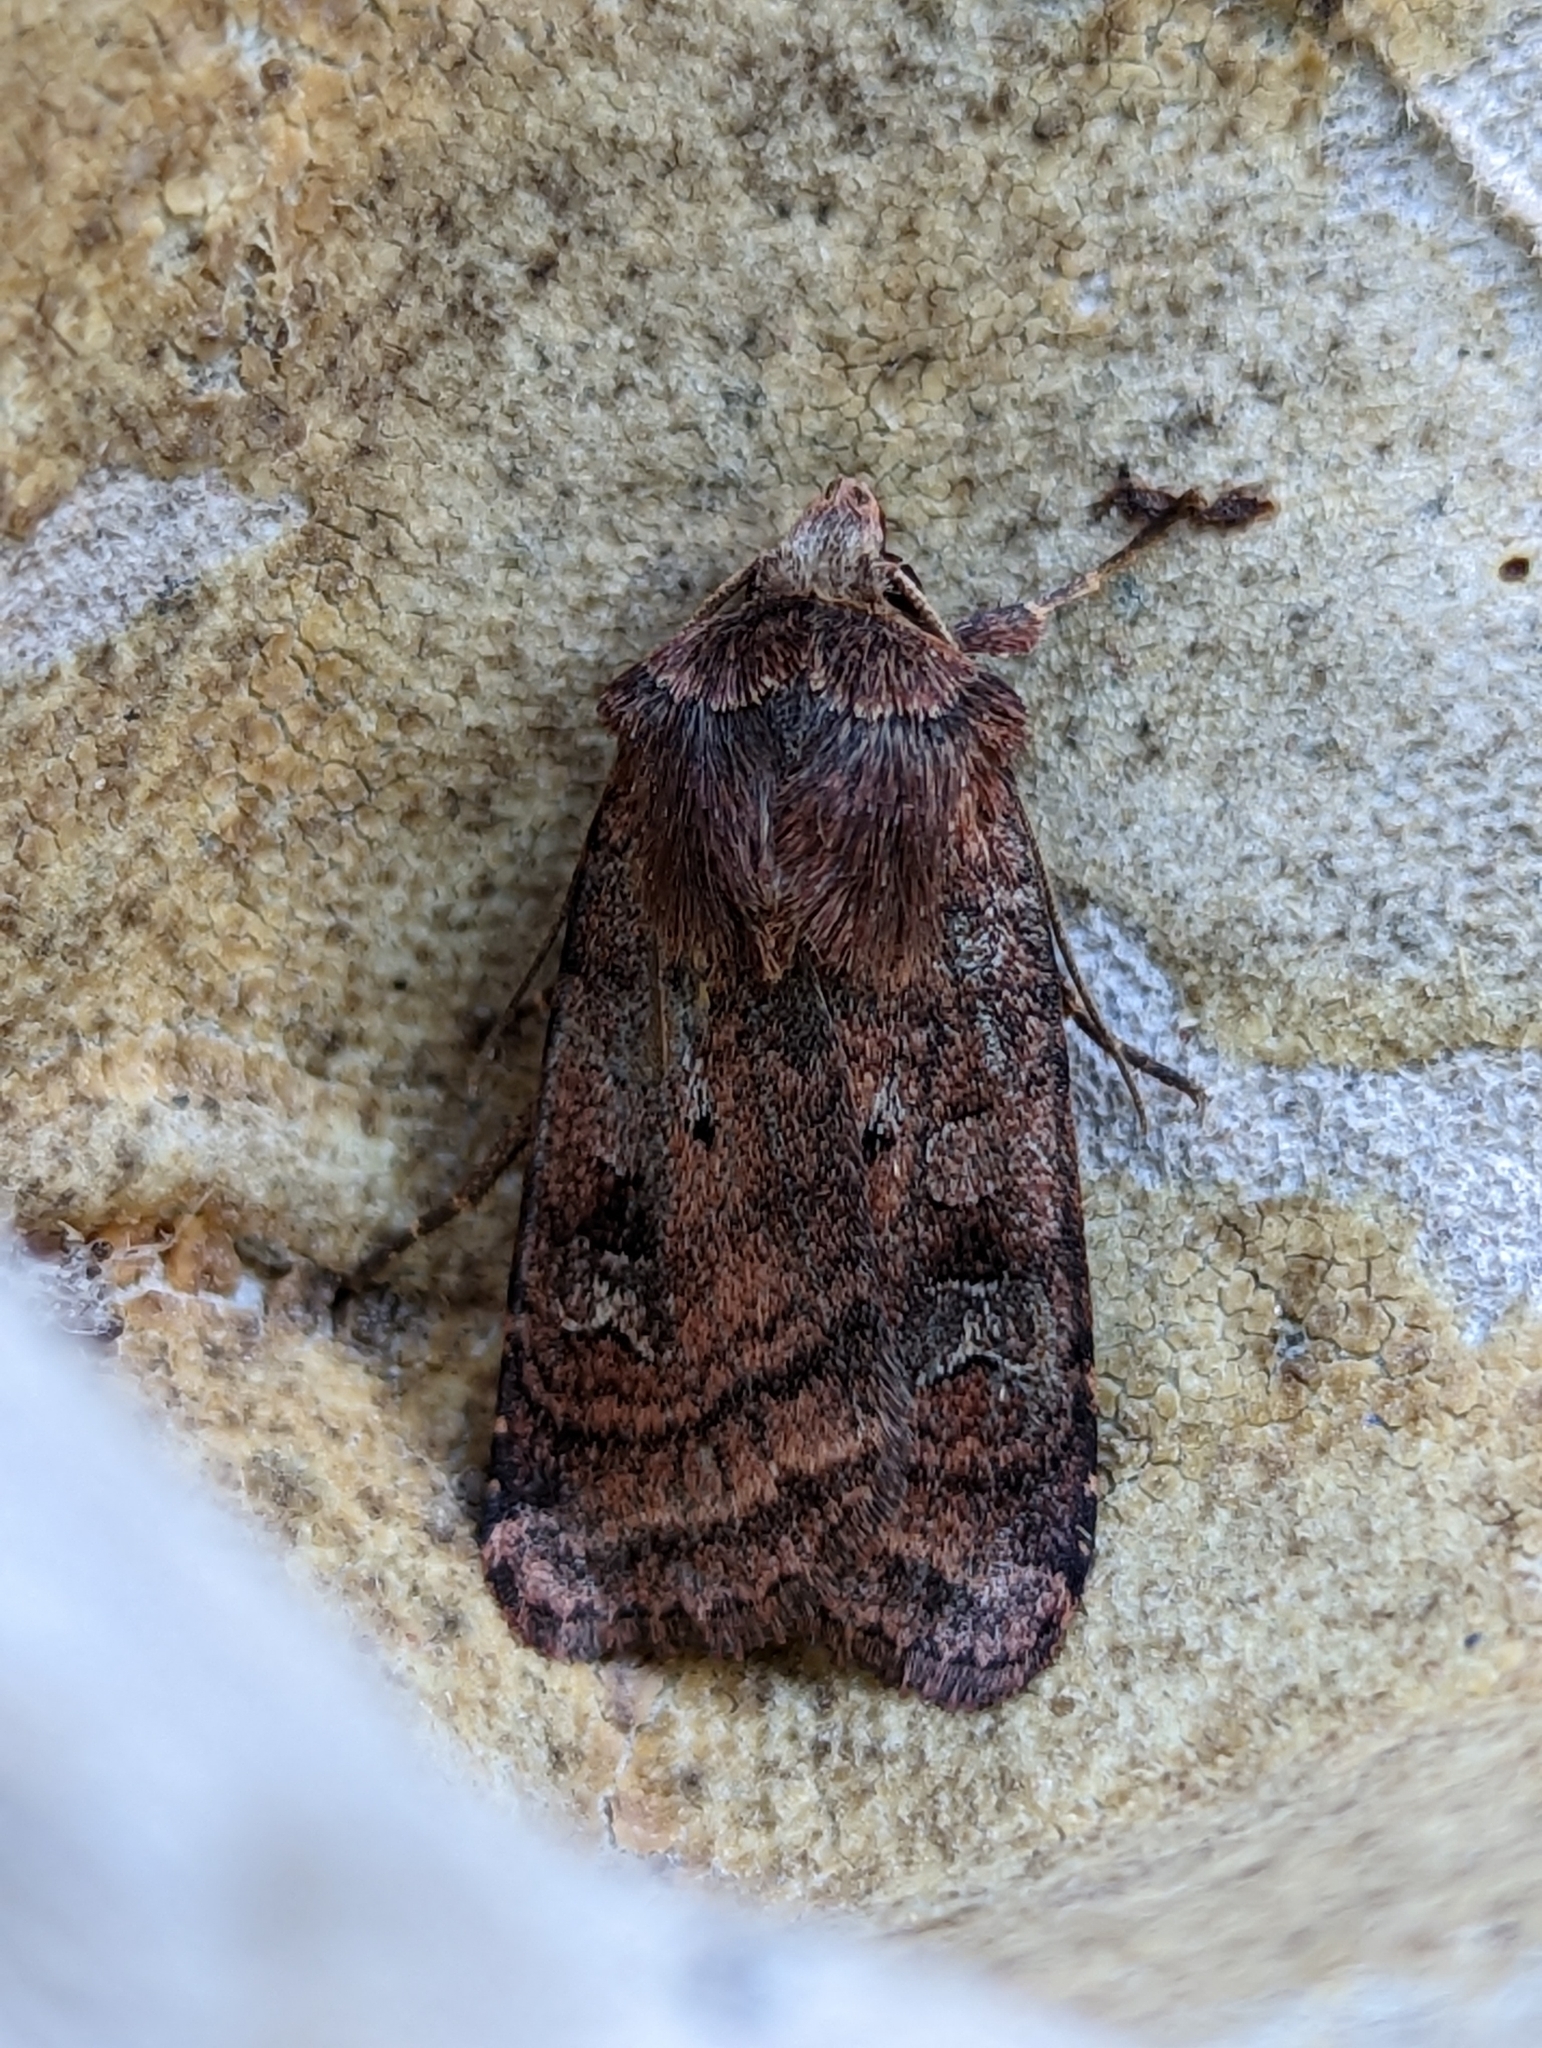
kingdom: Animalia
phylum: Arthropoda
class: Insecta
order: Lepidoptera
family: Noctuidae
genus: Diarsia
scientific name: Diarsia rubi
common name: Small square-spot
